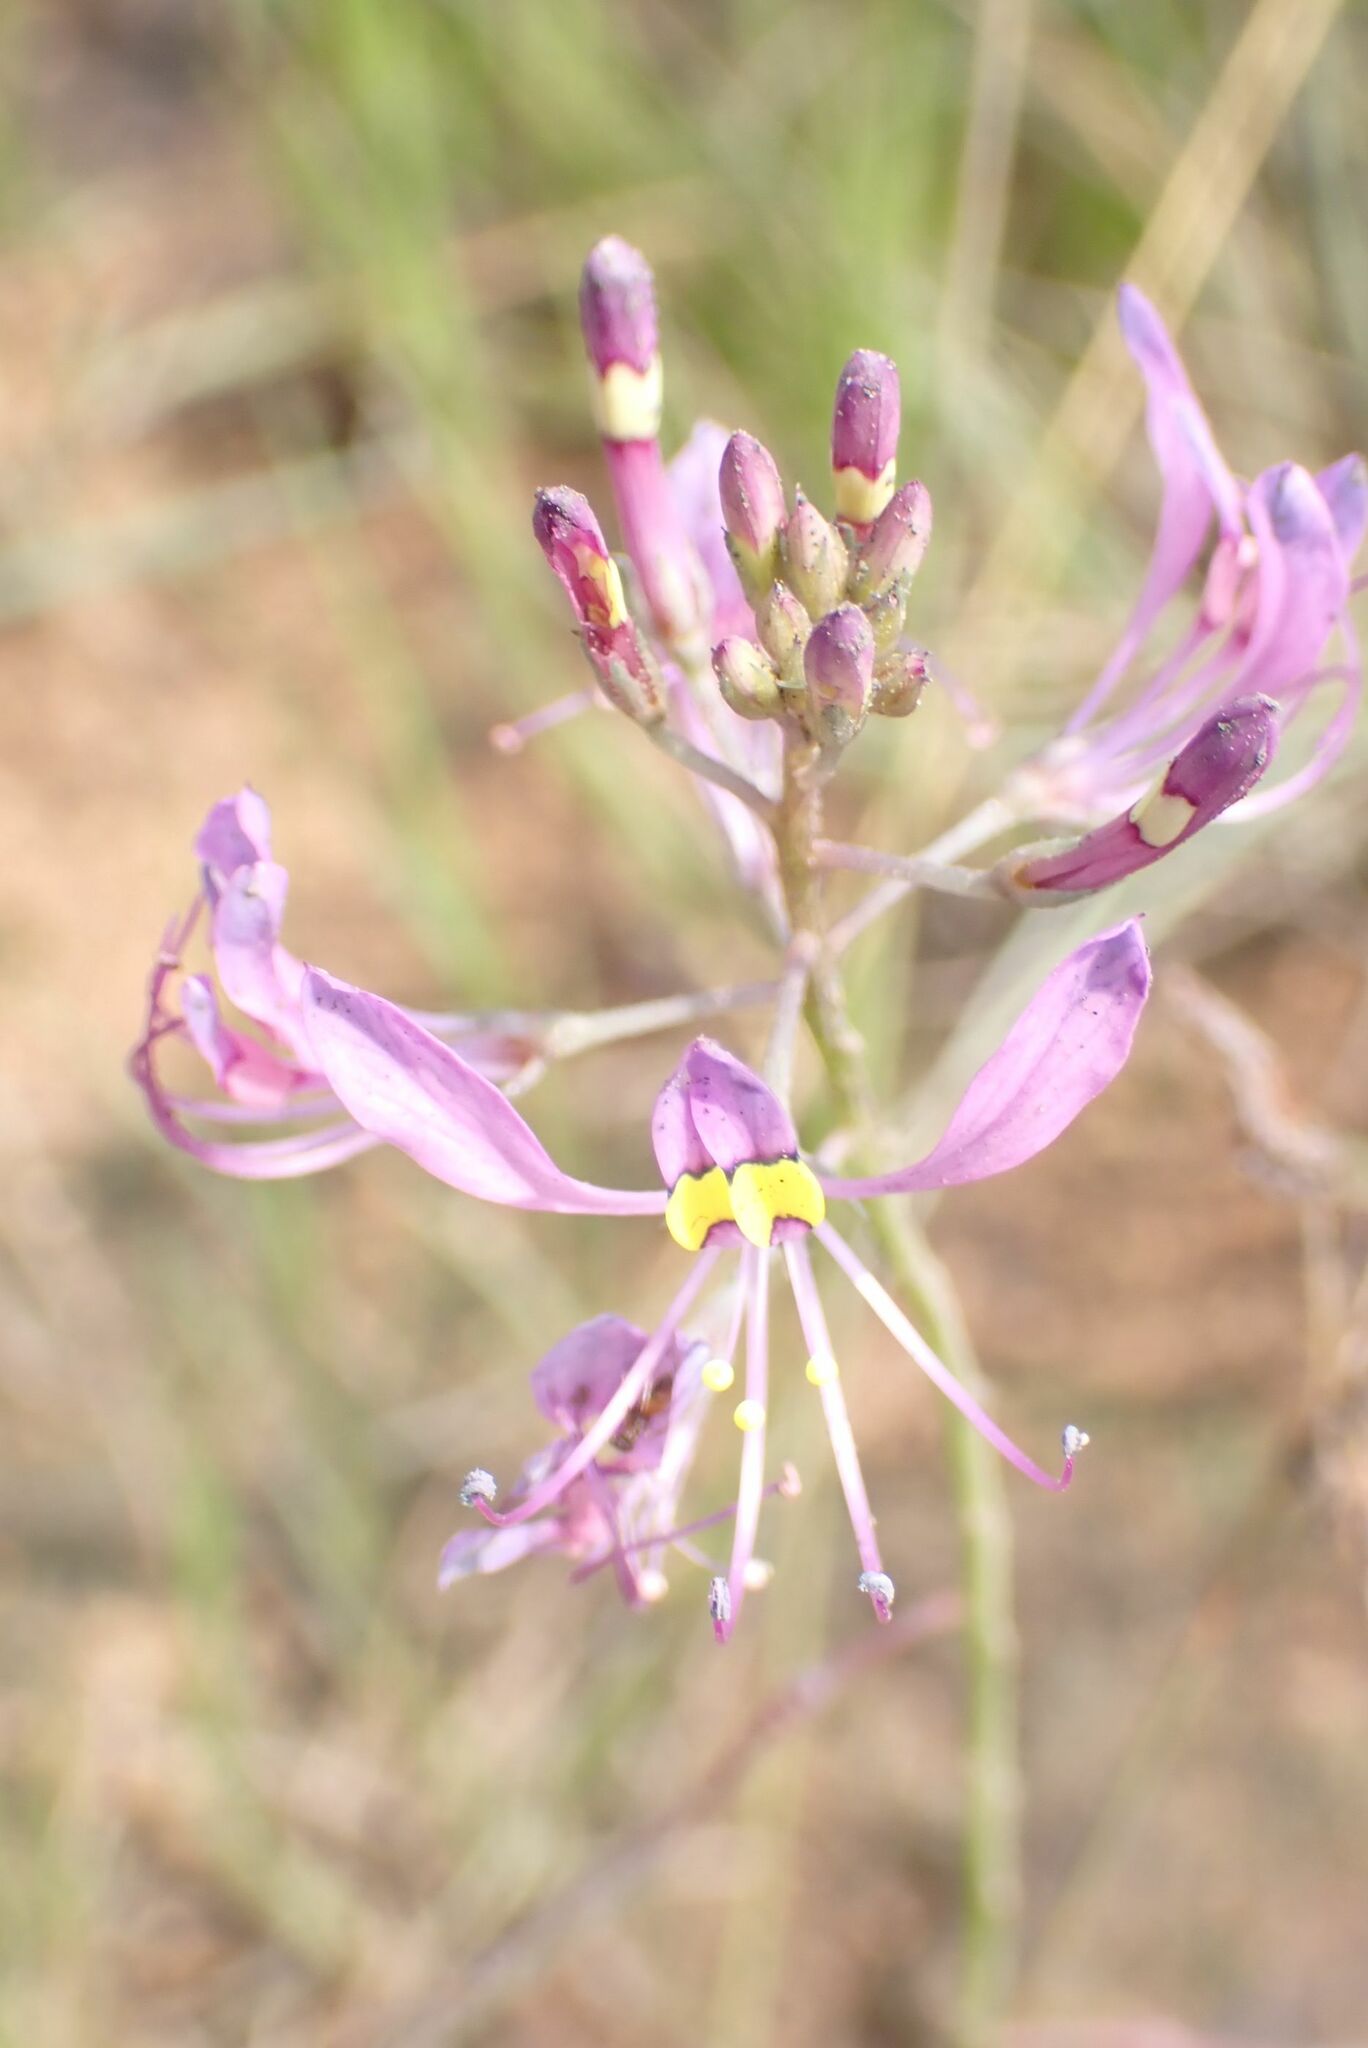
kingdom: Plantae
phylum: Tracheophyta
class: Magnoliopsida
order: Brassicales
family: Cleomaceae
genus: Sieruela
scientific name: Sieruela maculata
